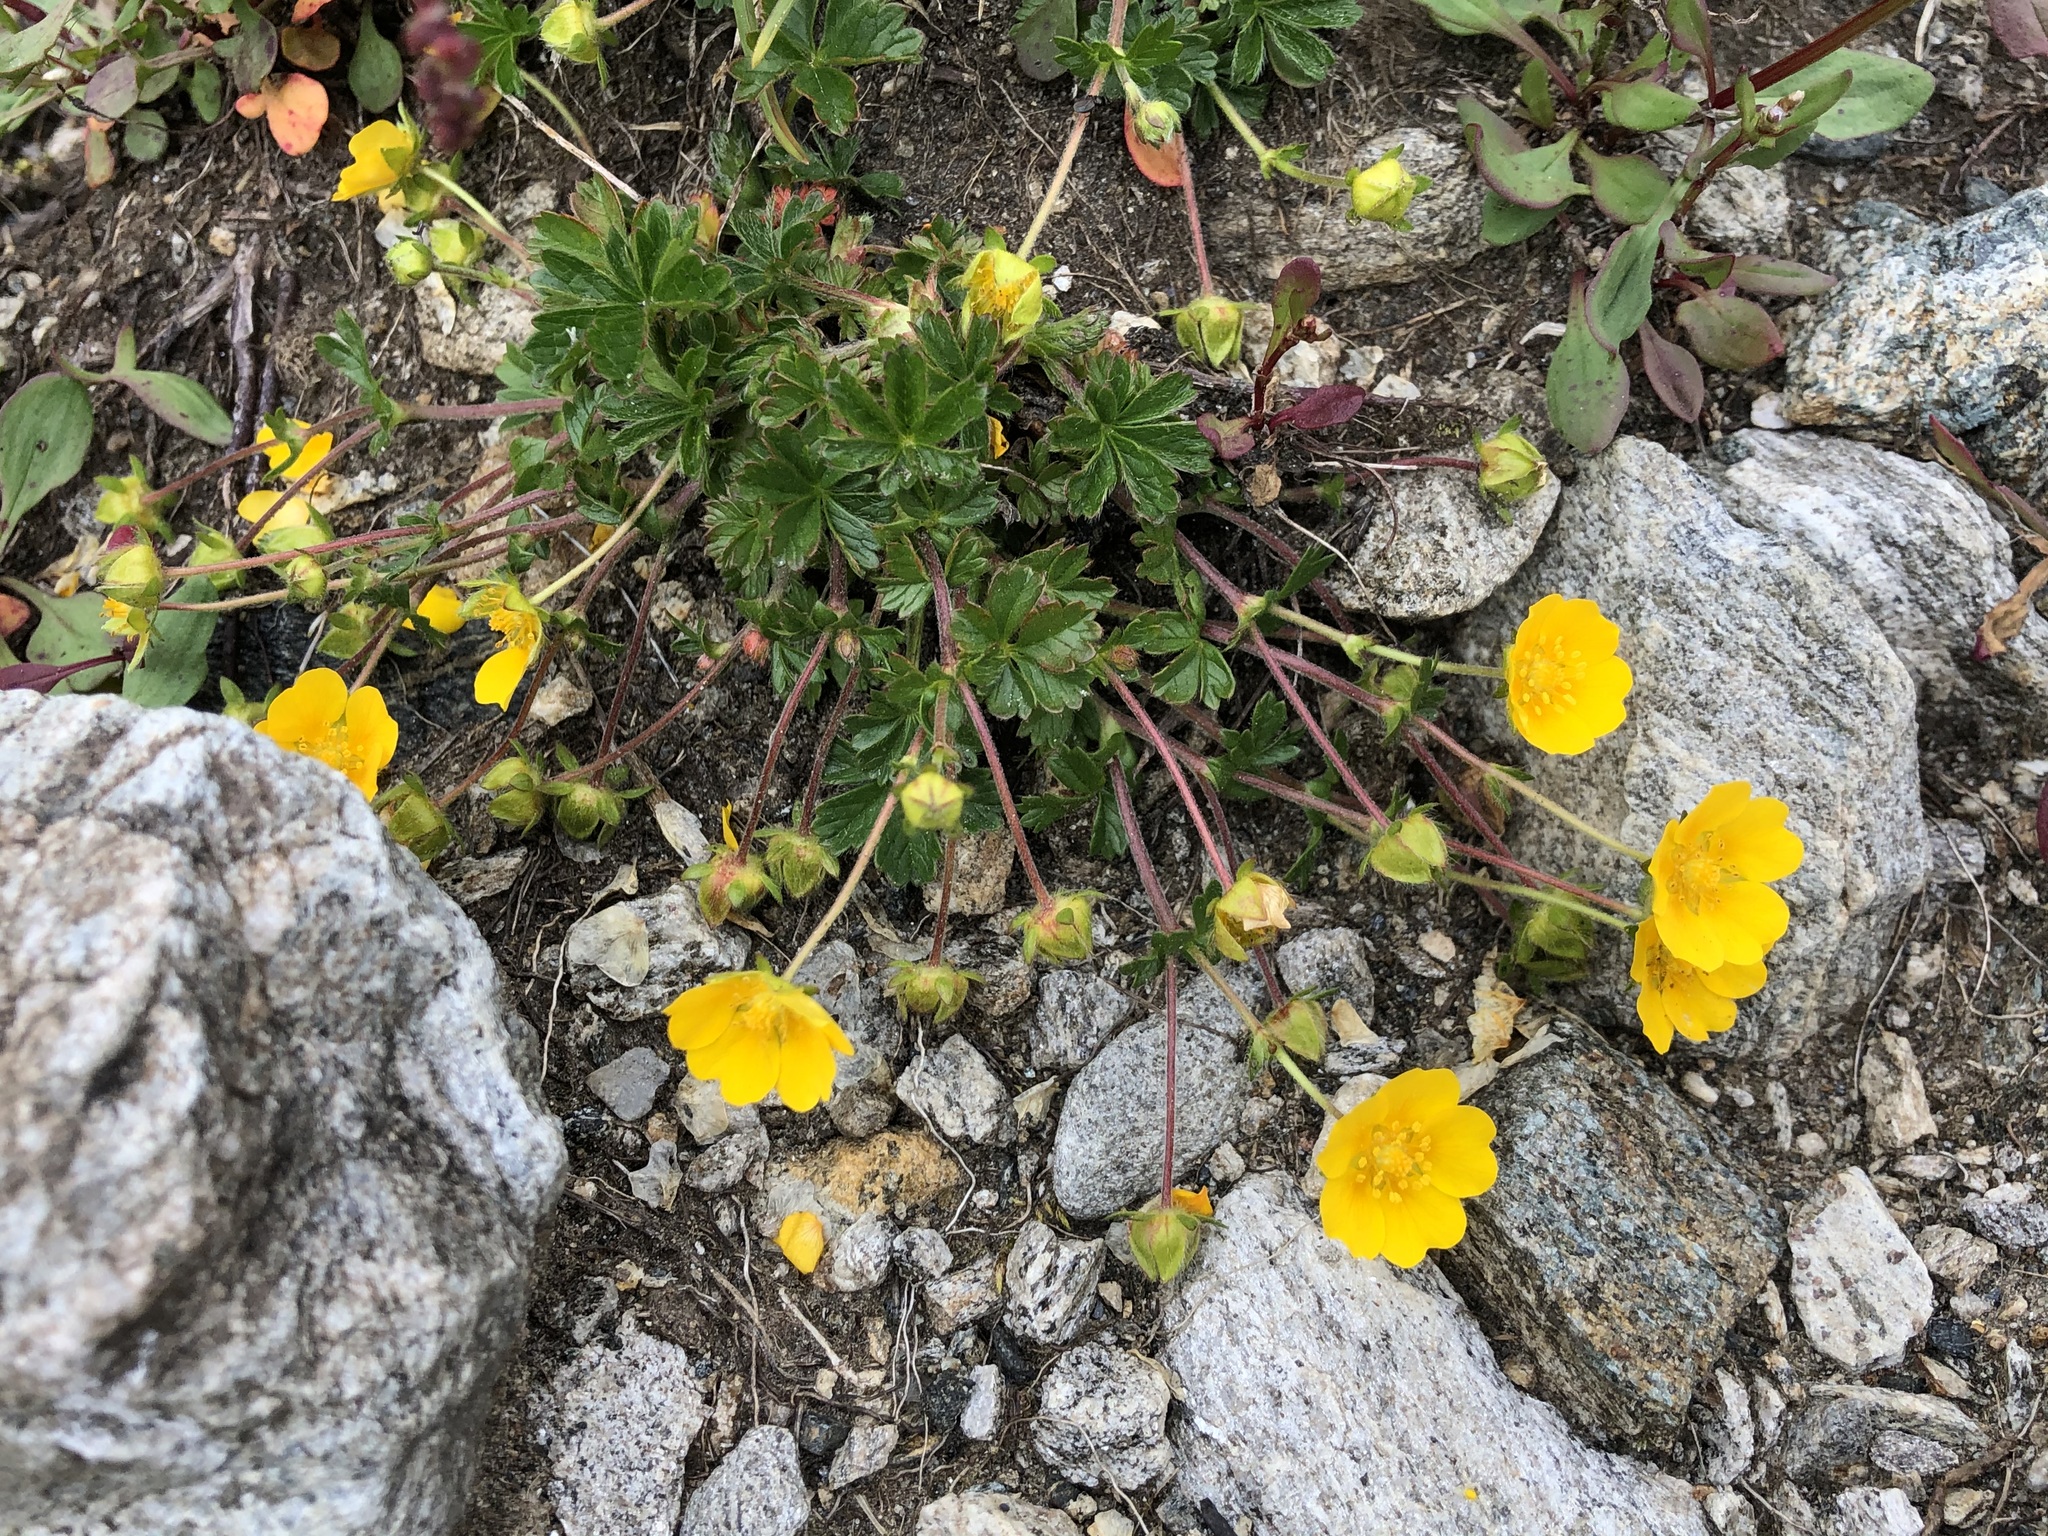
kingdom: Plantae
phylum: Tracheophyta
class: Magnoliopsida
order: Rosales
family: Rosaceae
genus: Potentilla
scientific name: Potentilla crantzii
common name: Alpine cinquefoil
